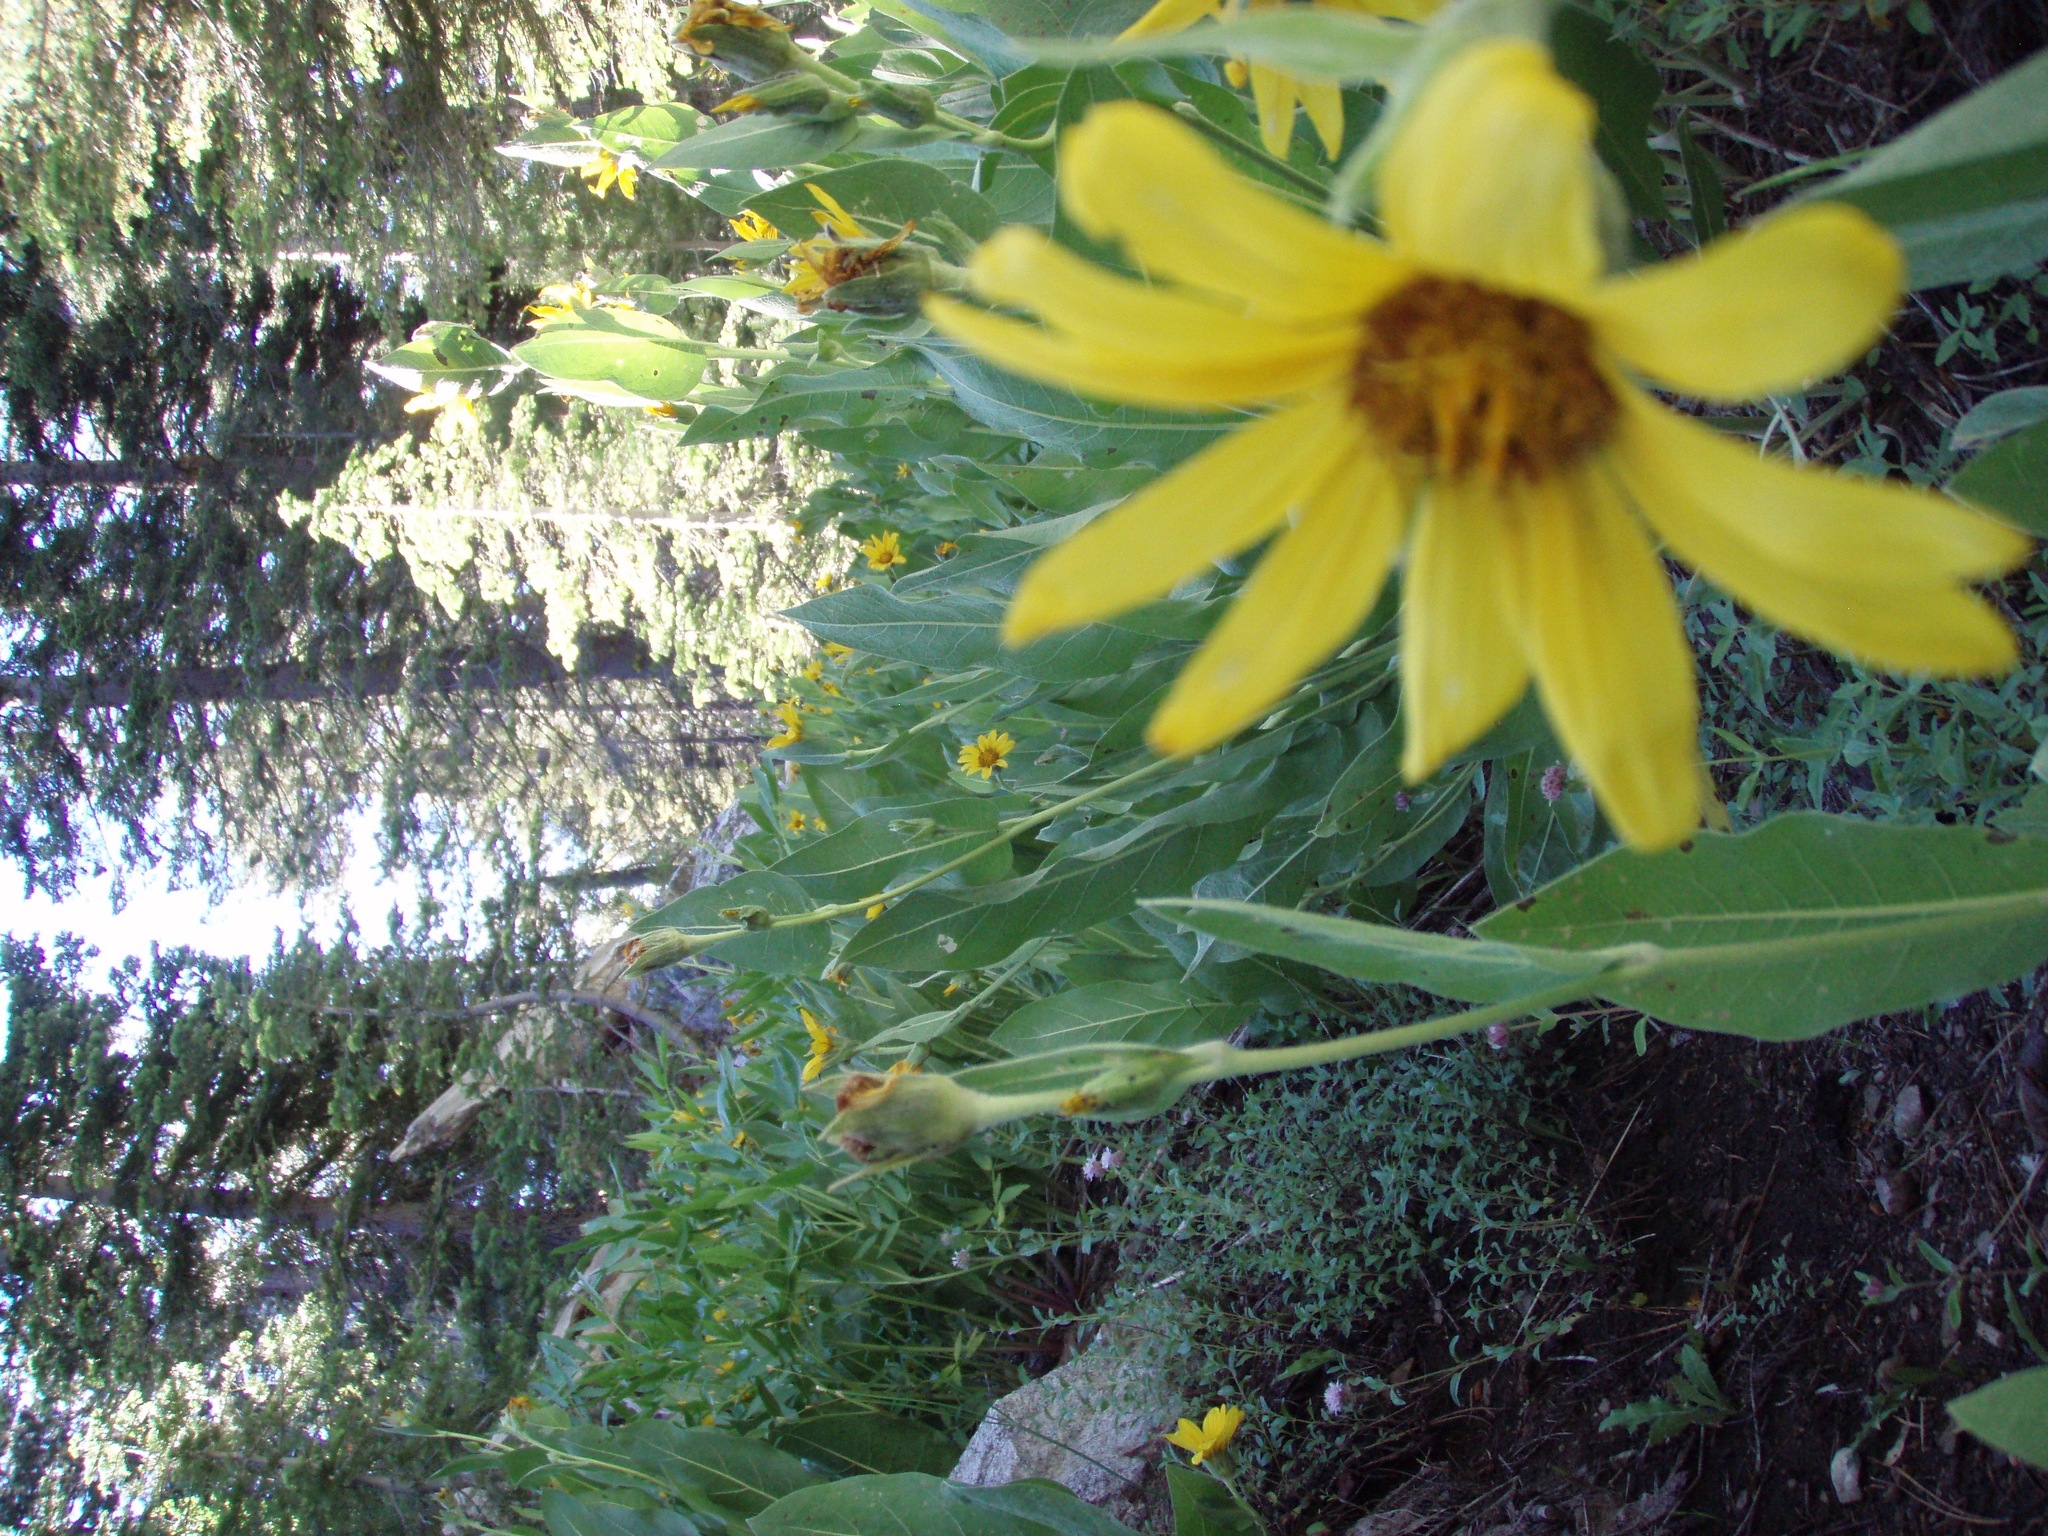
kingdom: Plantae
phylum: Tracheophyta
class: Magnoliopsida
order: Asterales
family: Asteraceae
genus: Wyethia
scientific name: Wyethia mollis
